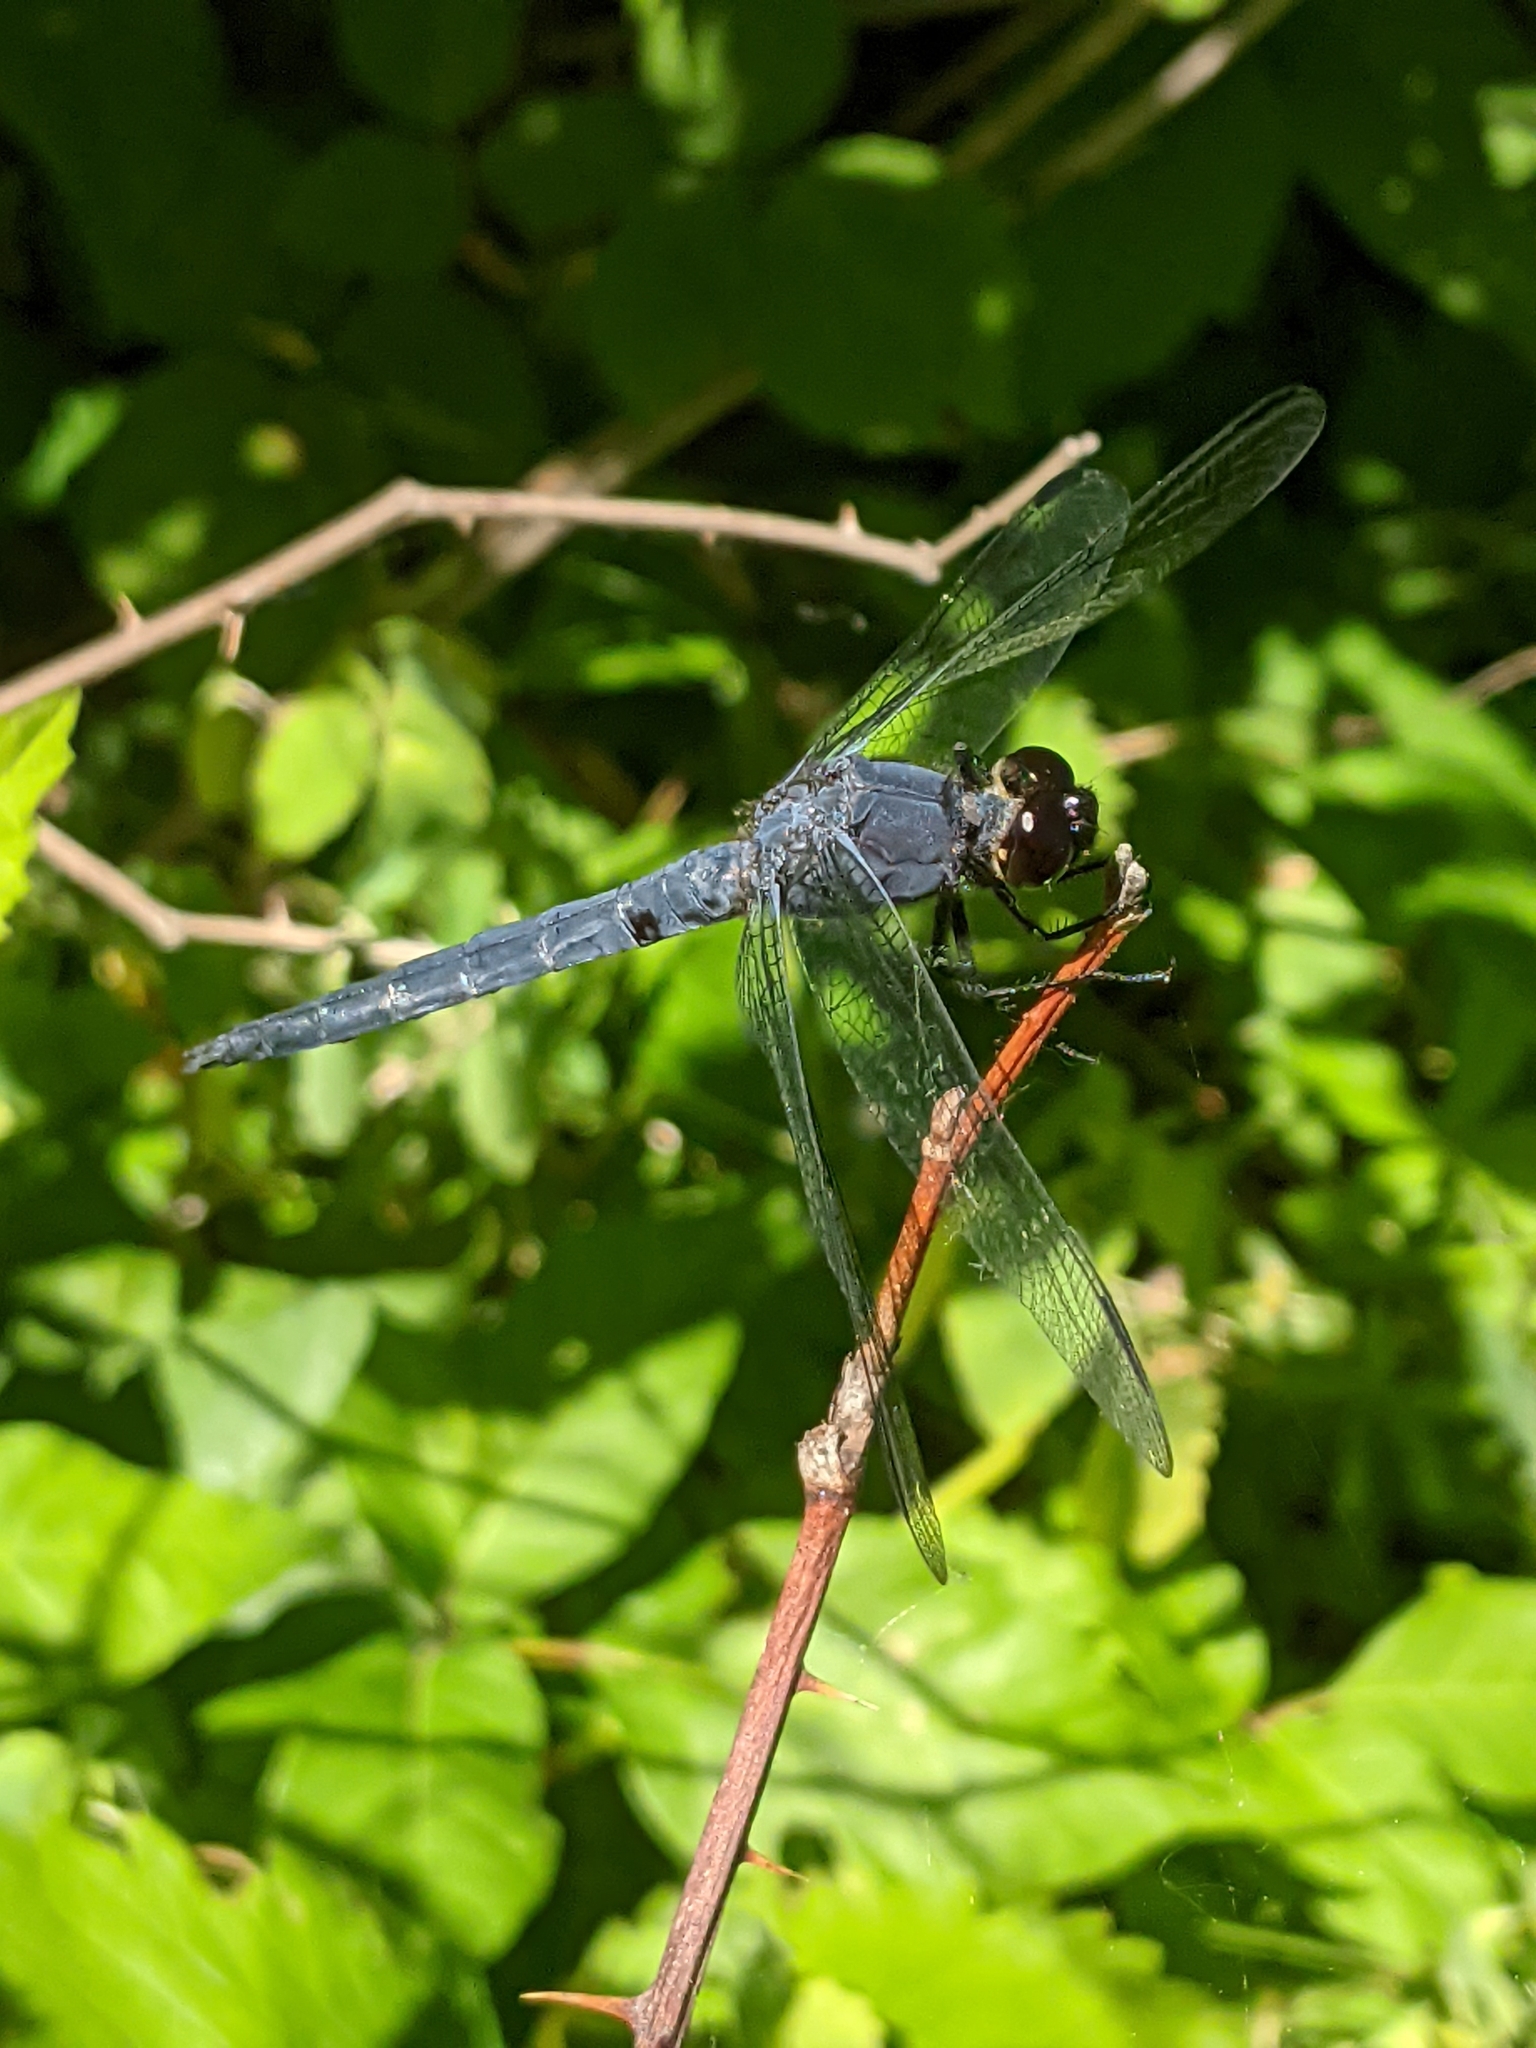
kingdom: Animalia
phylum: Arthropoda
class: Insecta
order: Odonata
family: Libellulidae
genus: Libellula
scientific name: Libellula incesta
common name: Slaty skimmer
